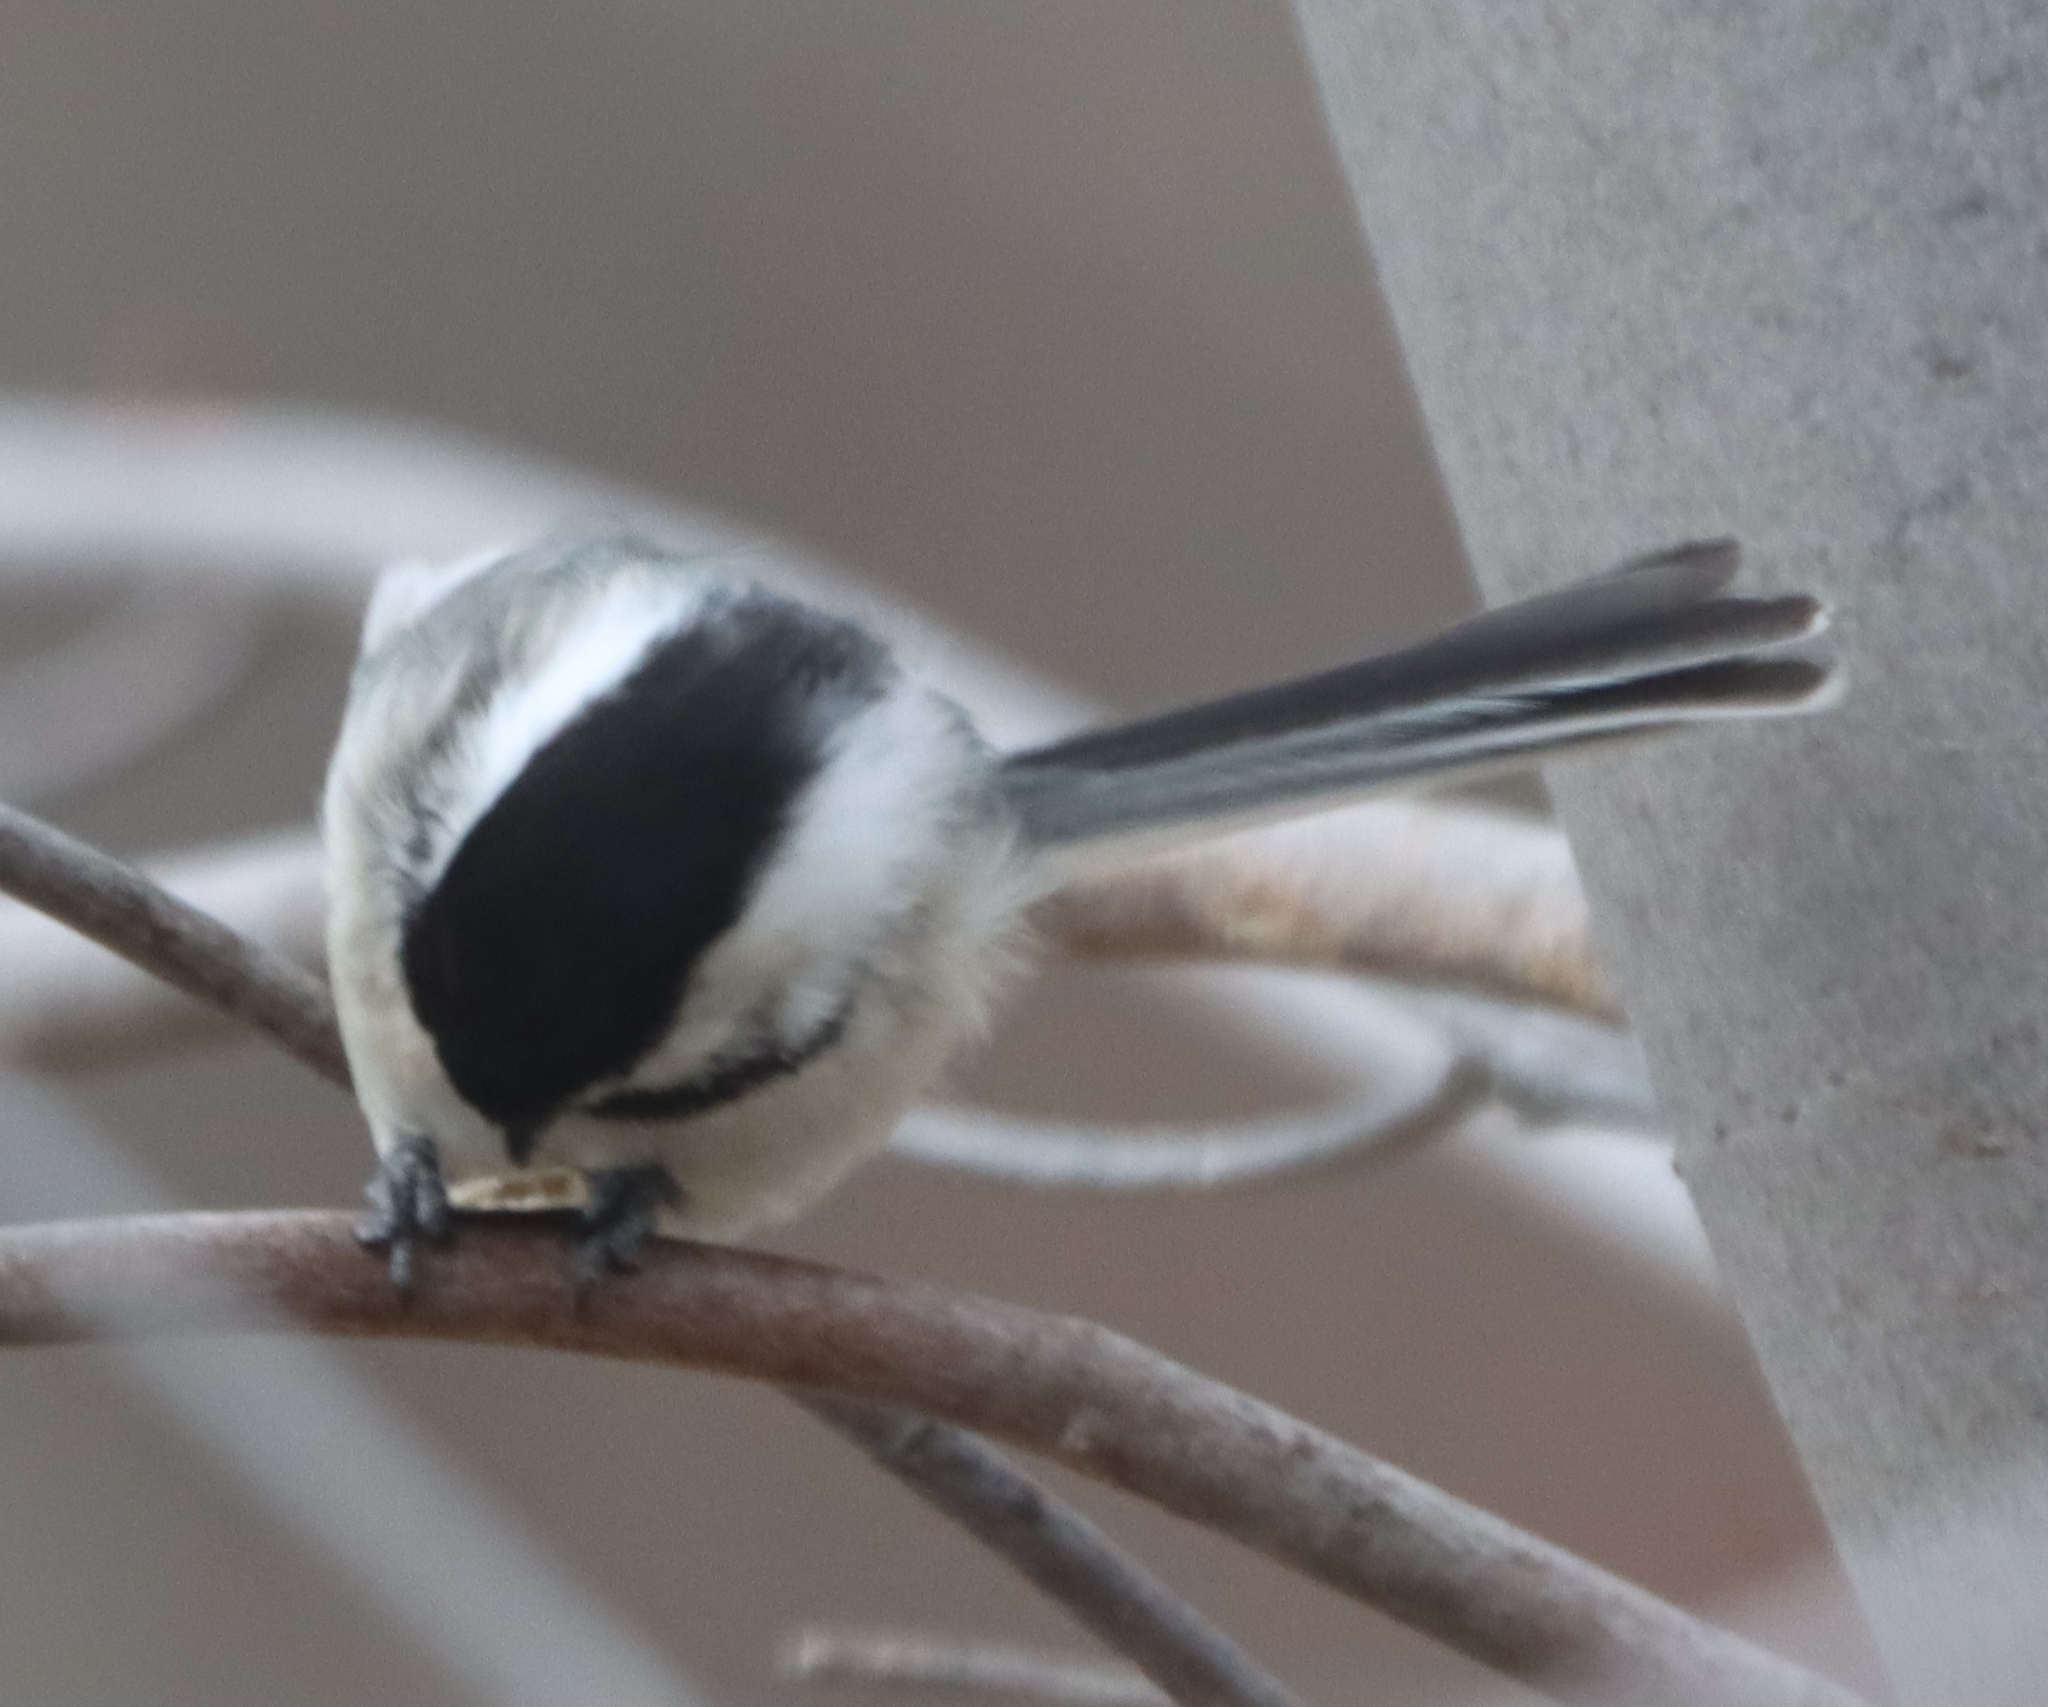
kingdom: Animalia
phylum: Chordata
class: Aves
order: Passeriformes
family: Paridae
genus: Poecile
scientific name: Poecile atricapillus
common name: Black-capped chickadee
